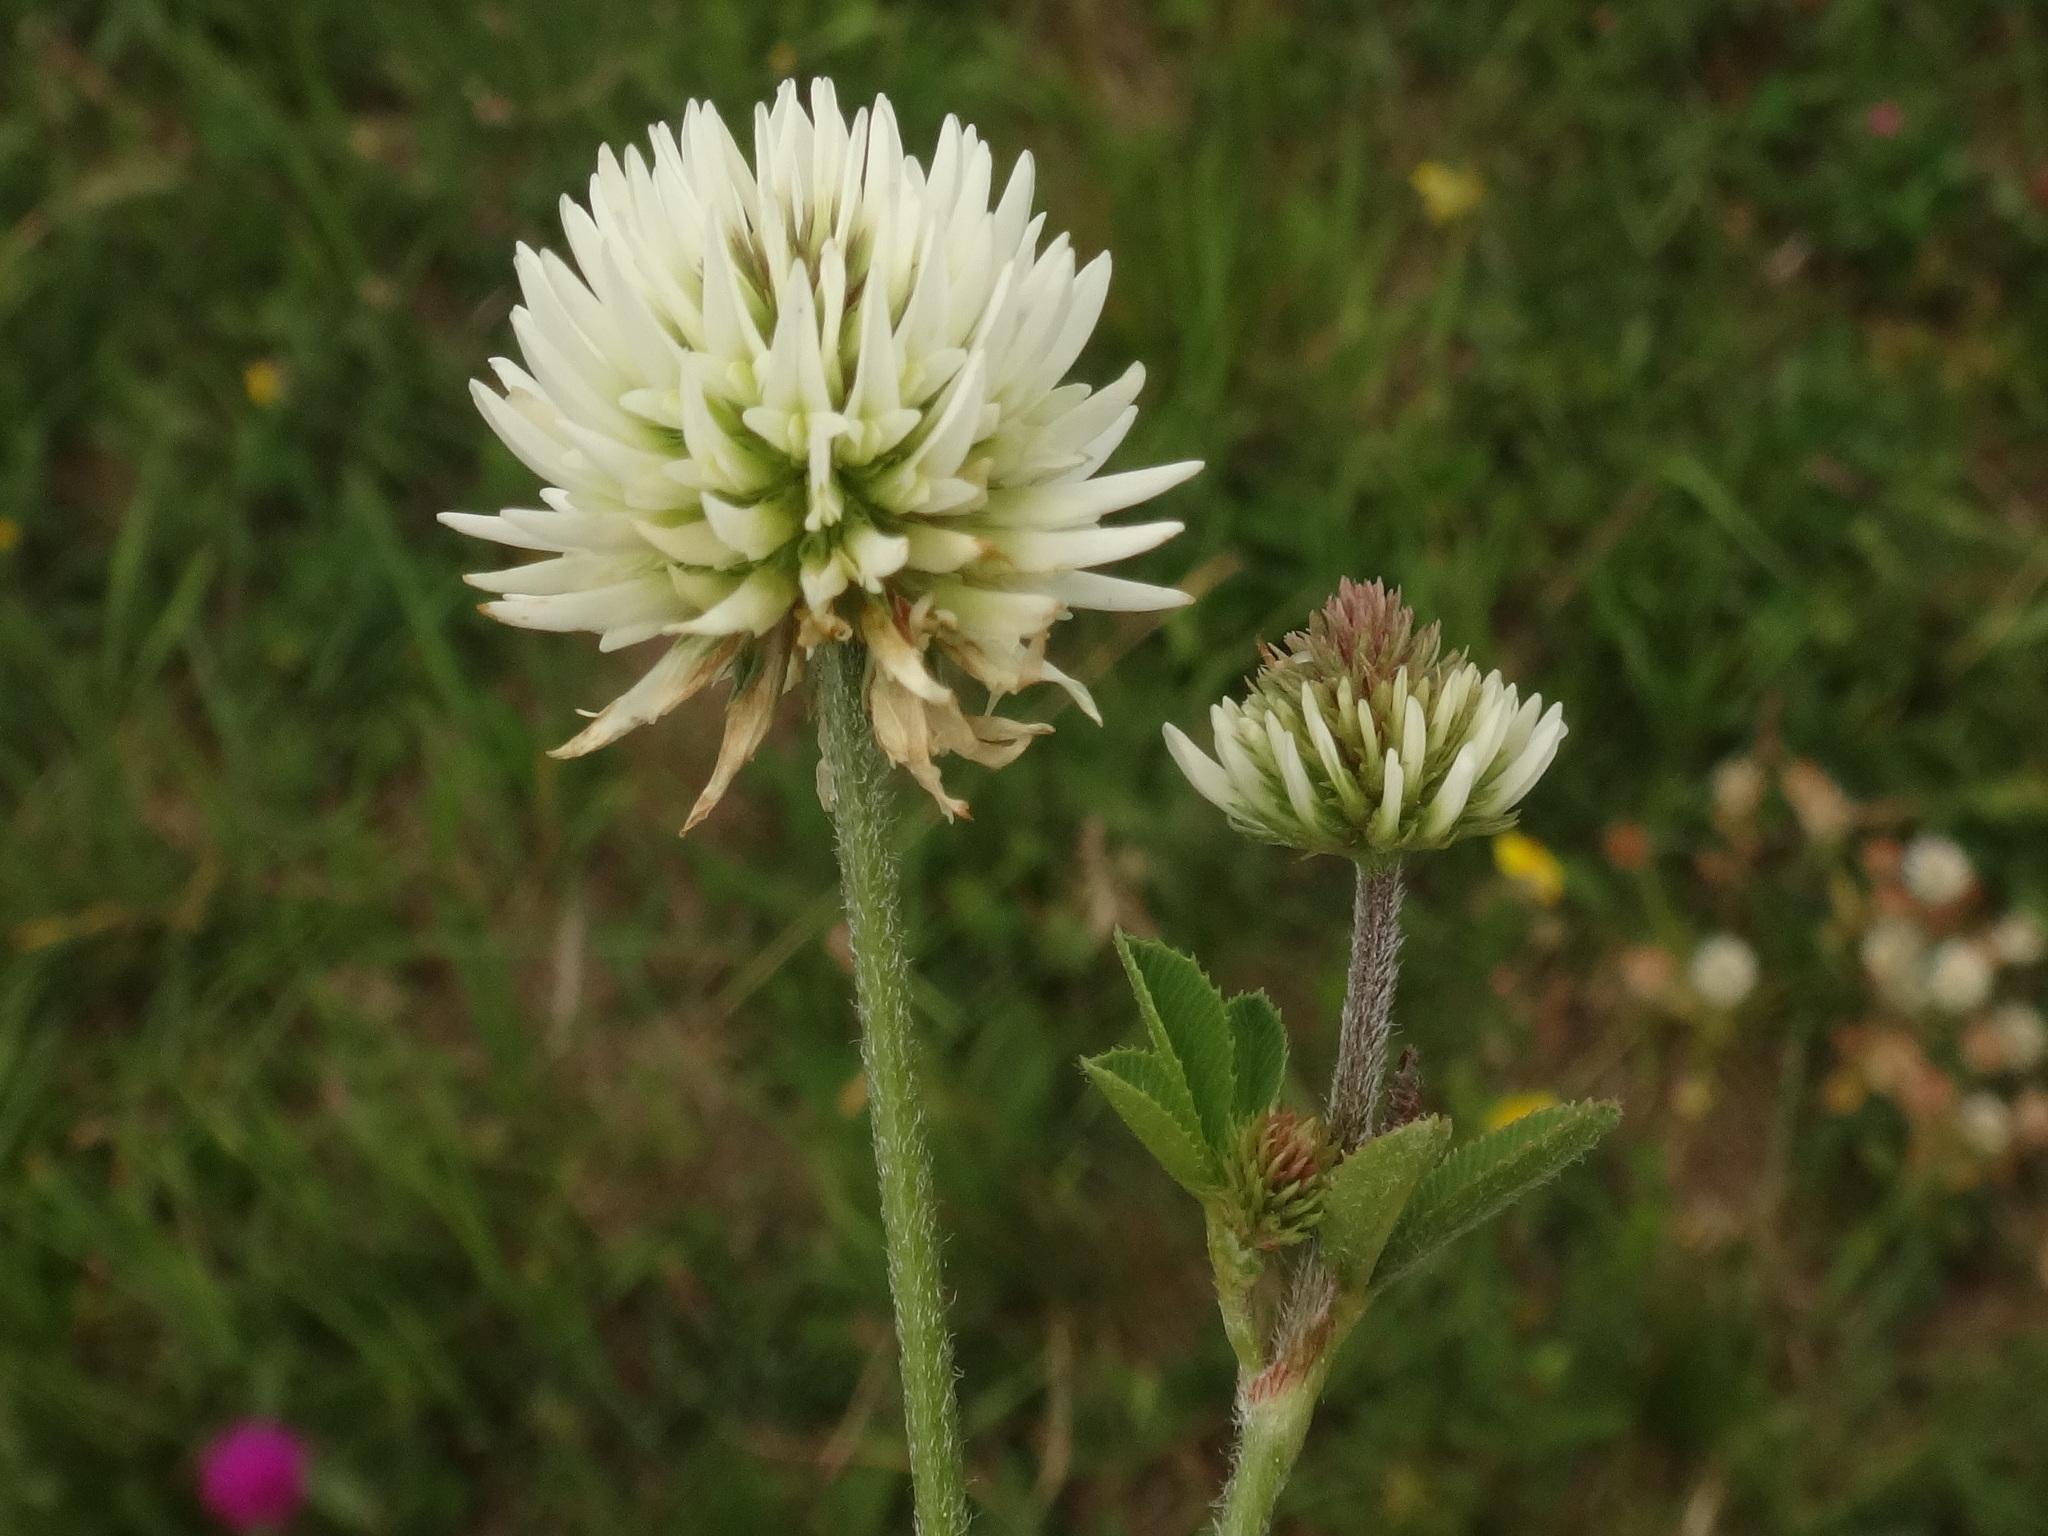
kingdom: Plantae
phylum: Tracheophyta
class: Magnoliopsida
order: Fabales
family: Fabaceae
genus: Trifolium
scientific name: Trifolium montanum
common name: Mountain clover
